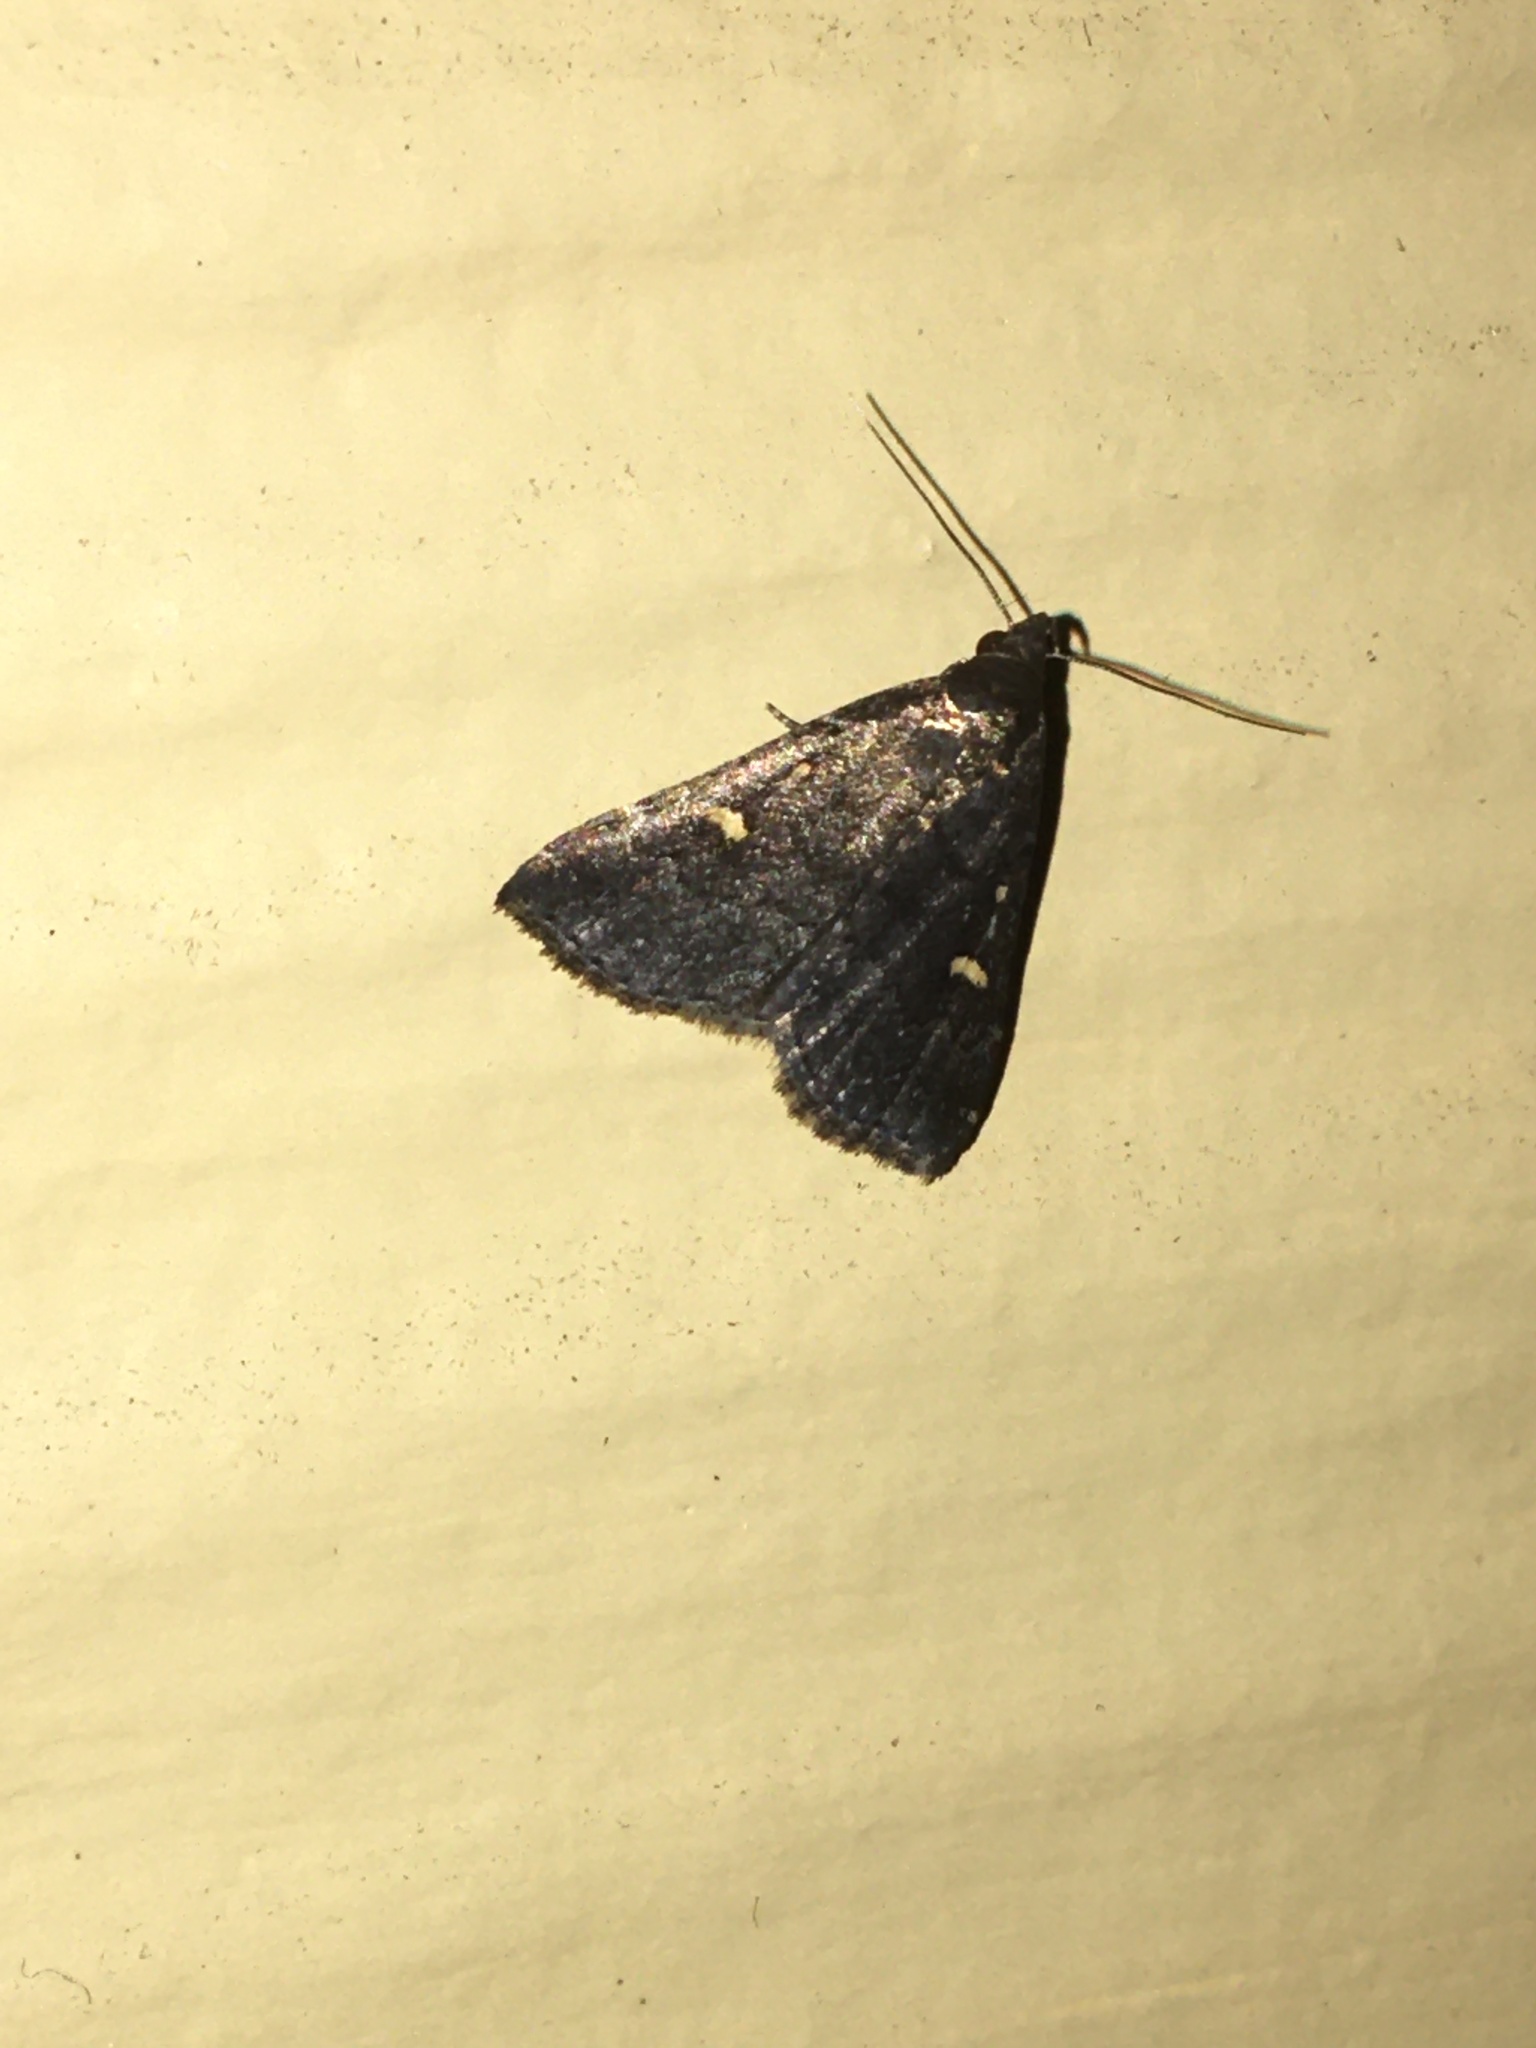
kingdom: Animalia
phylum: Arthropoda
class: Insecta
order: Lepidoptera
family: Erebidae
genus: Tetanolita
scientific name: Tetanolita mynesalis
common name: Smoky tetanolita moth
